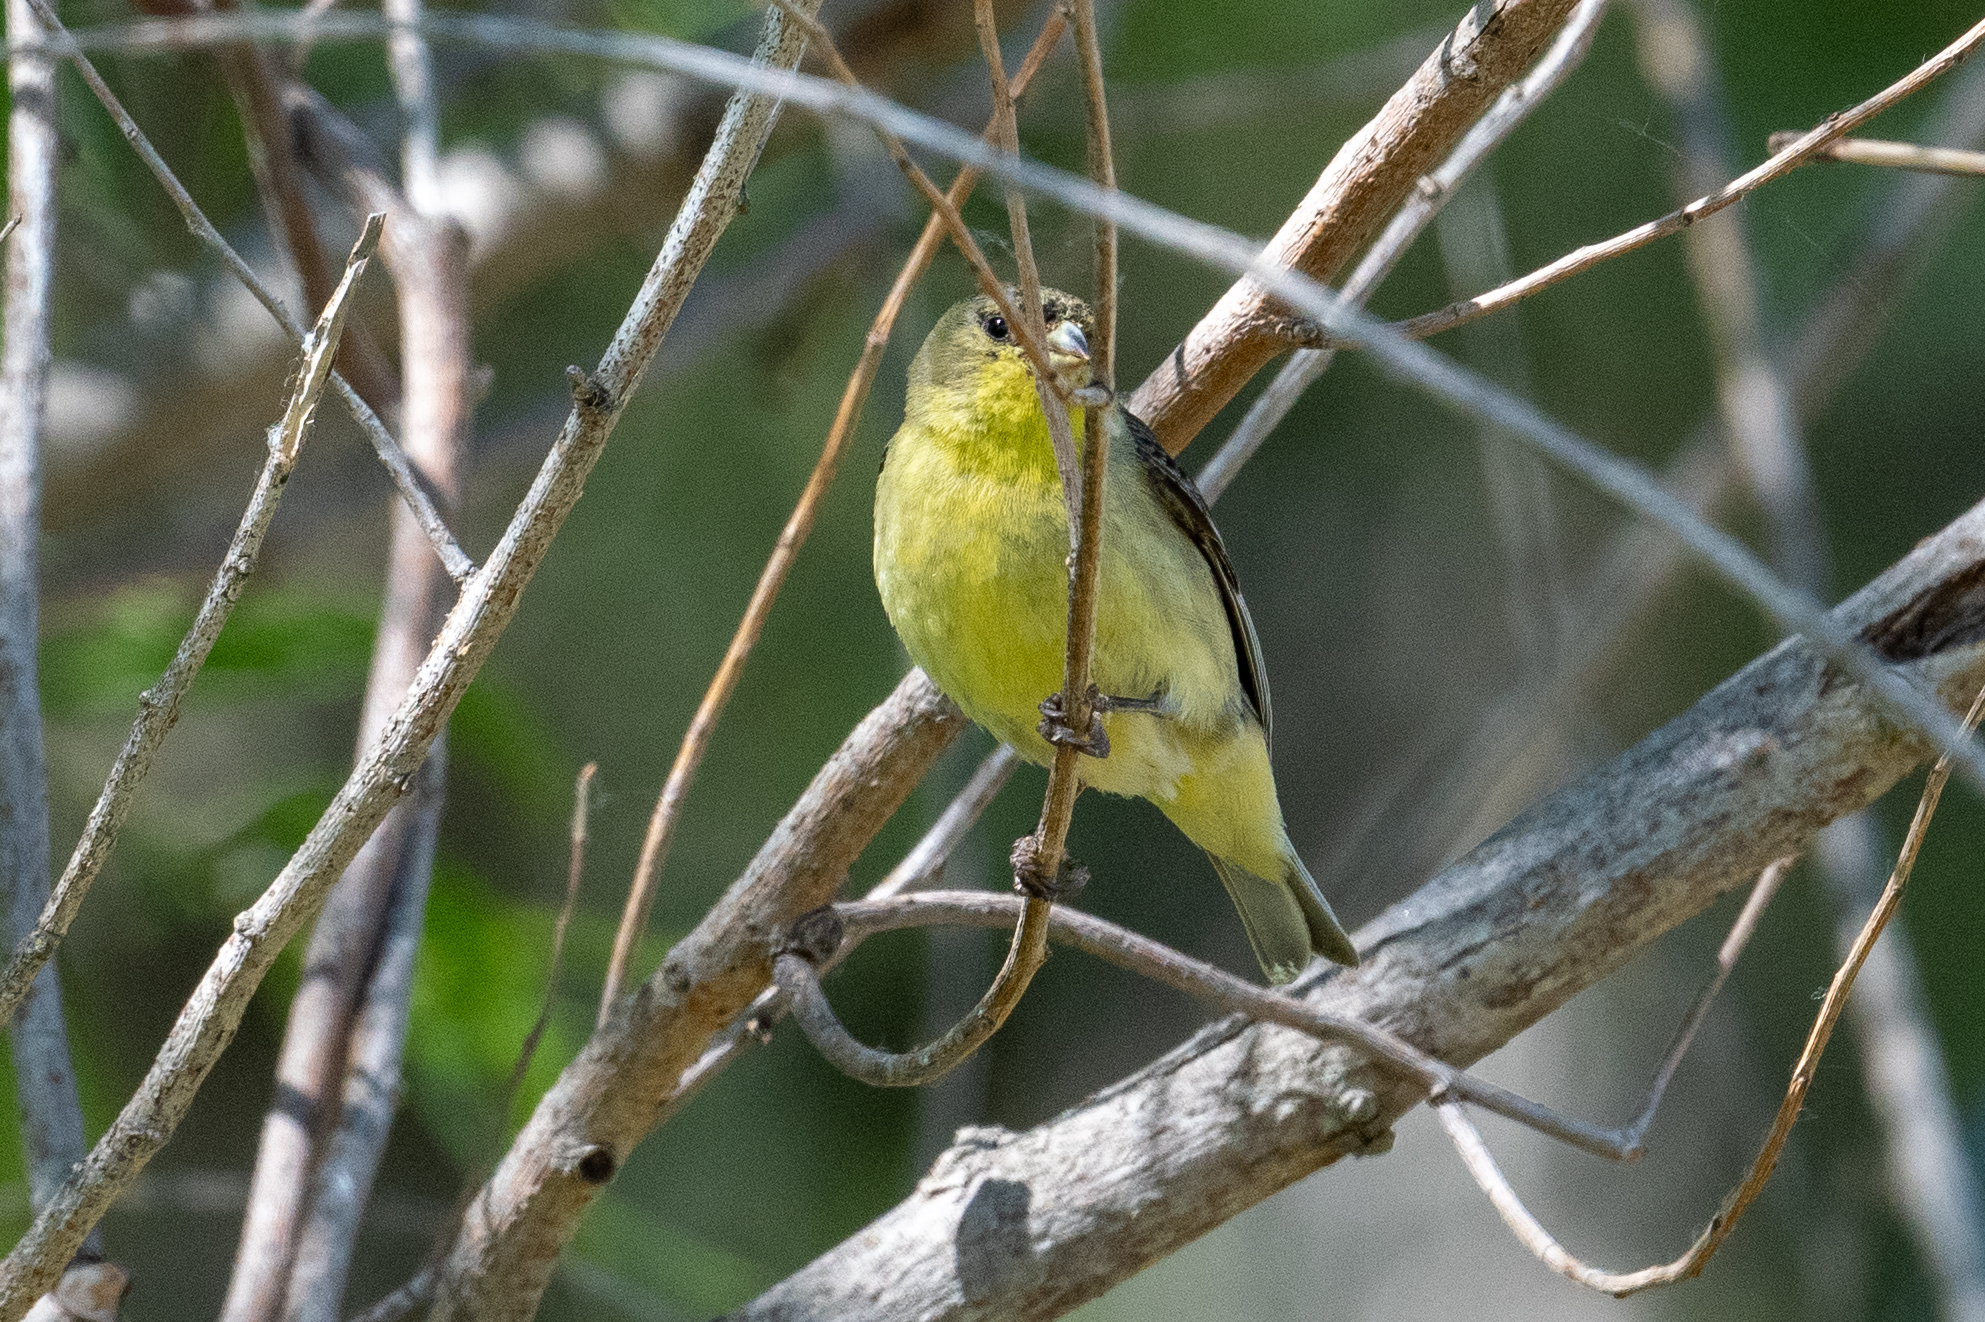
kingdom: Animalia
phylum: Chordata
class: Aves
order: Passeriformes
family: Fringillidae
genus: Spinus
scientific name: Spinus psaltria
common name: Lesser goldfinch
